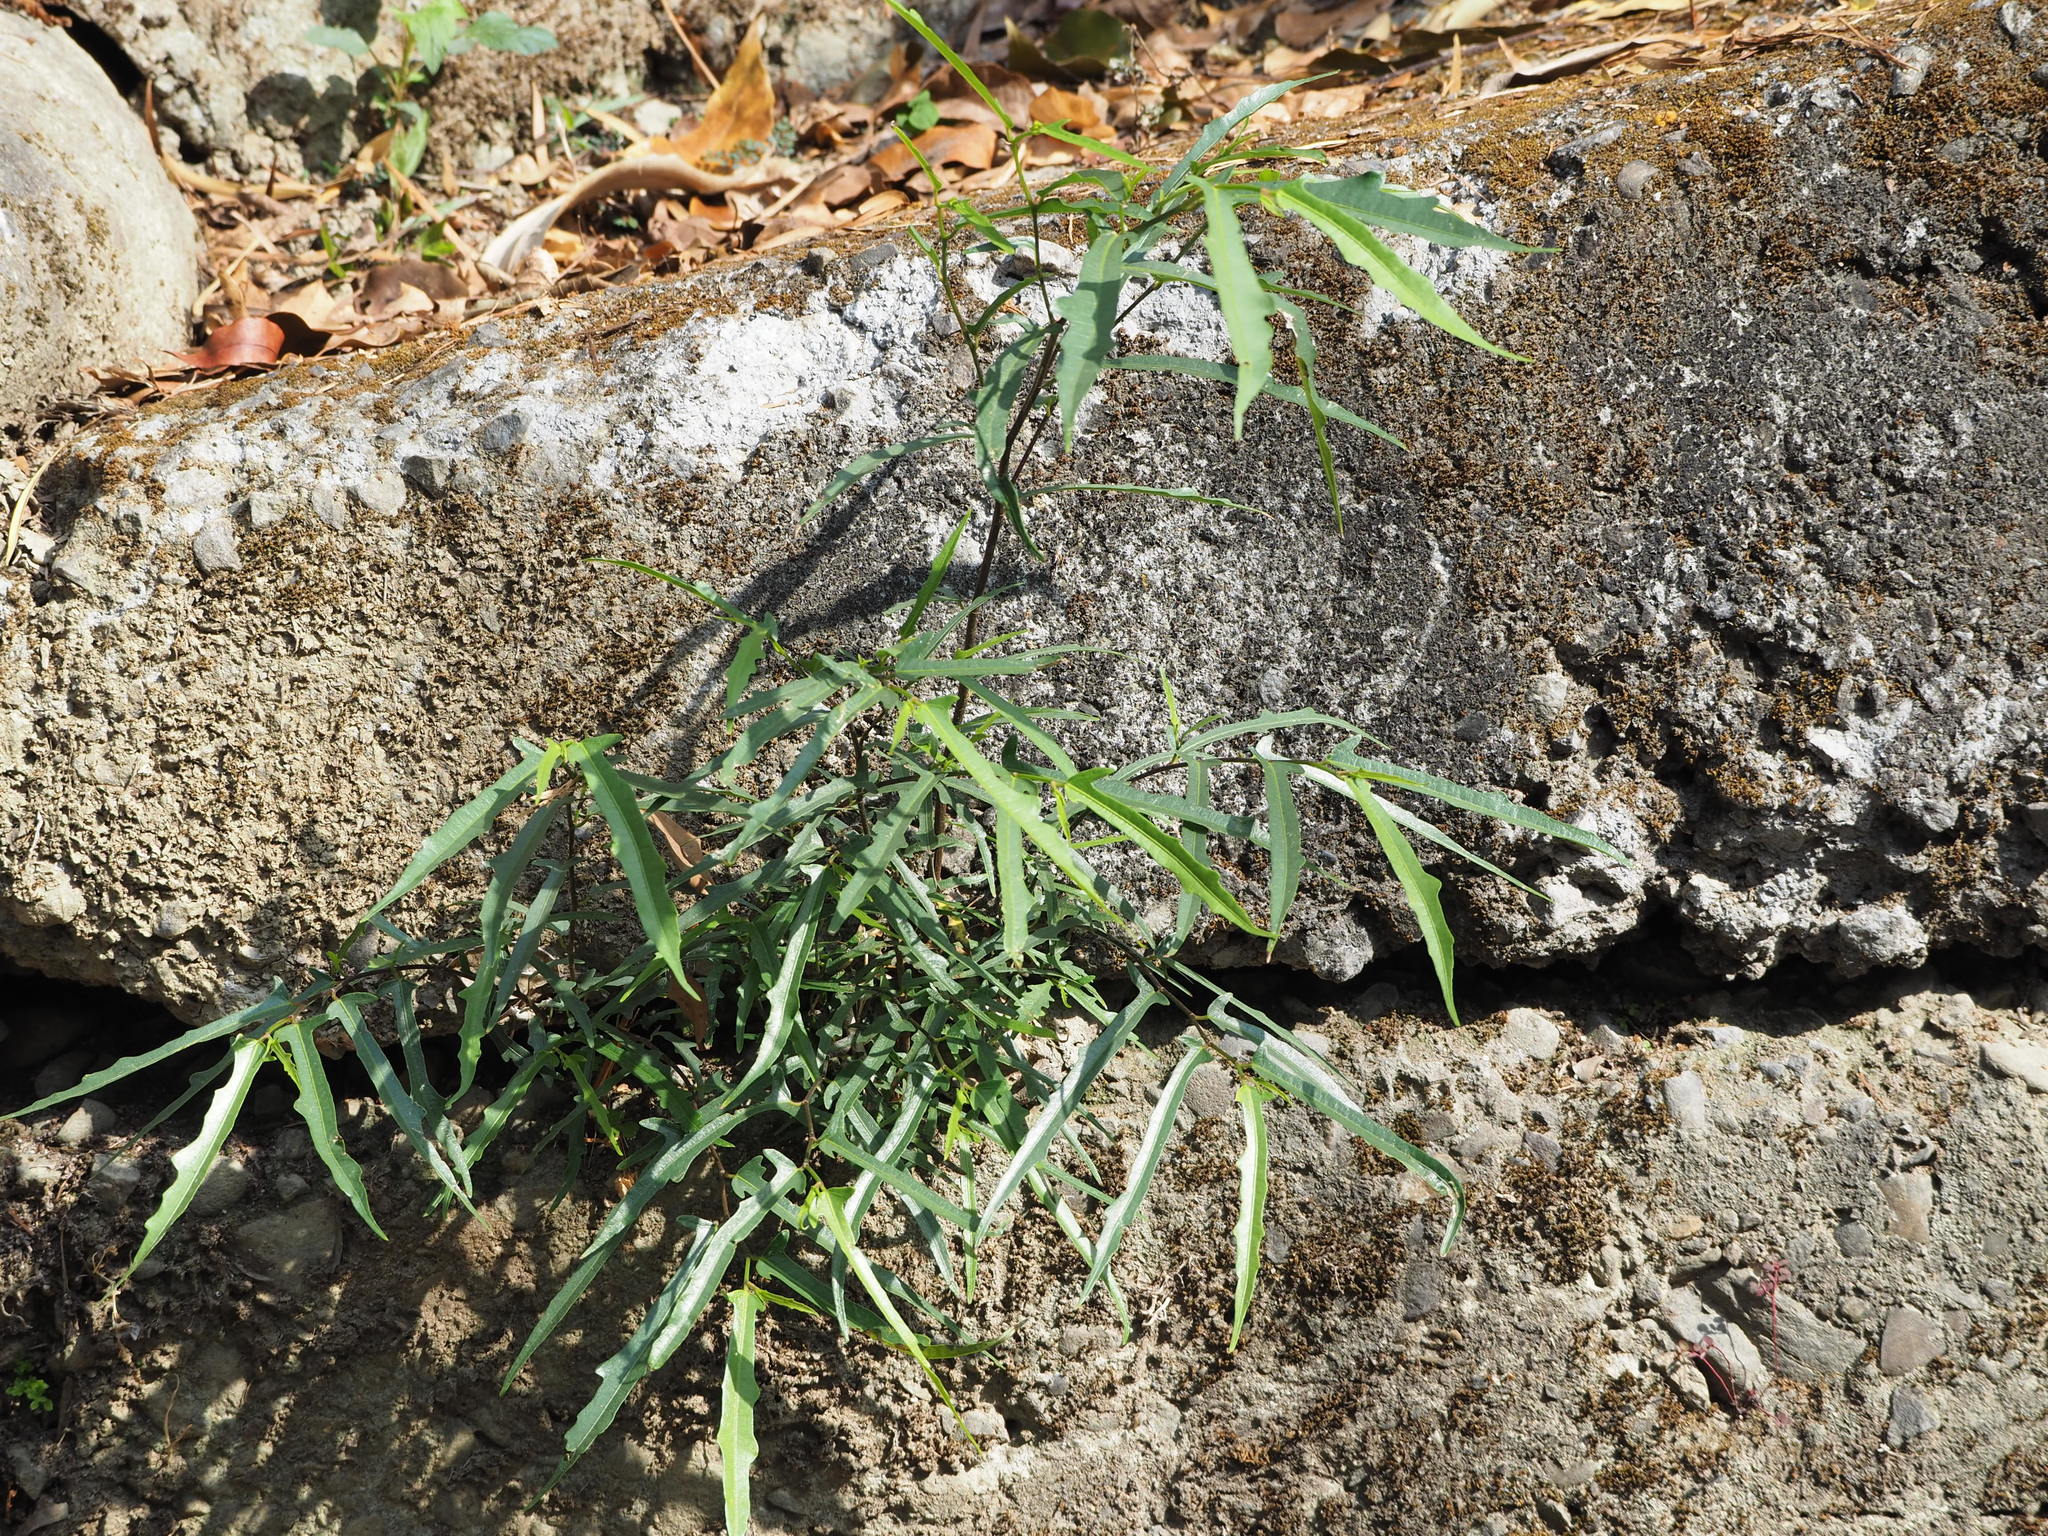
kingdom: Plantae
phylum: Tracheophyta
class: Magnoliopsida
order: Rosales
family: Moraceae
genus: Ficus
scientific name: Ficus ampelos
